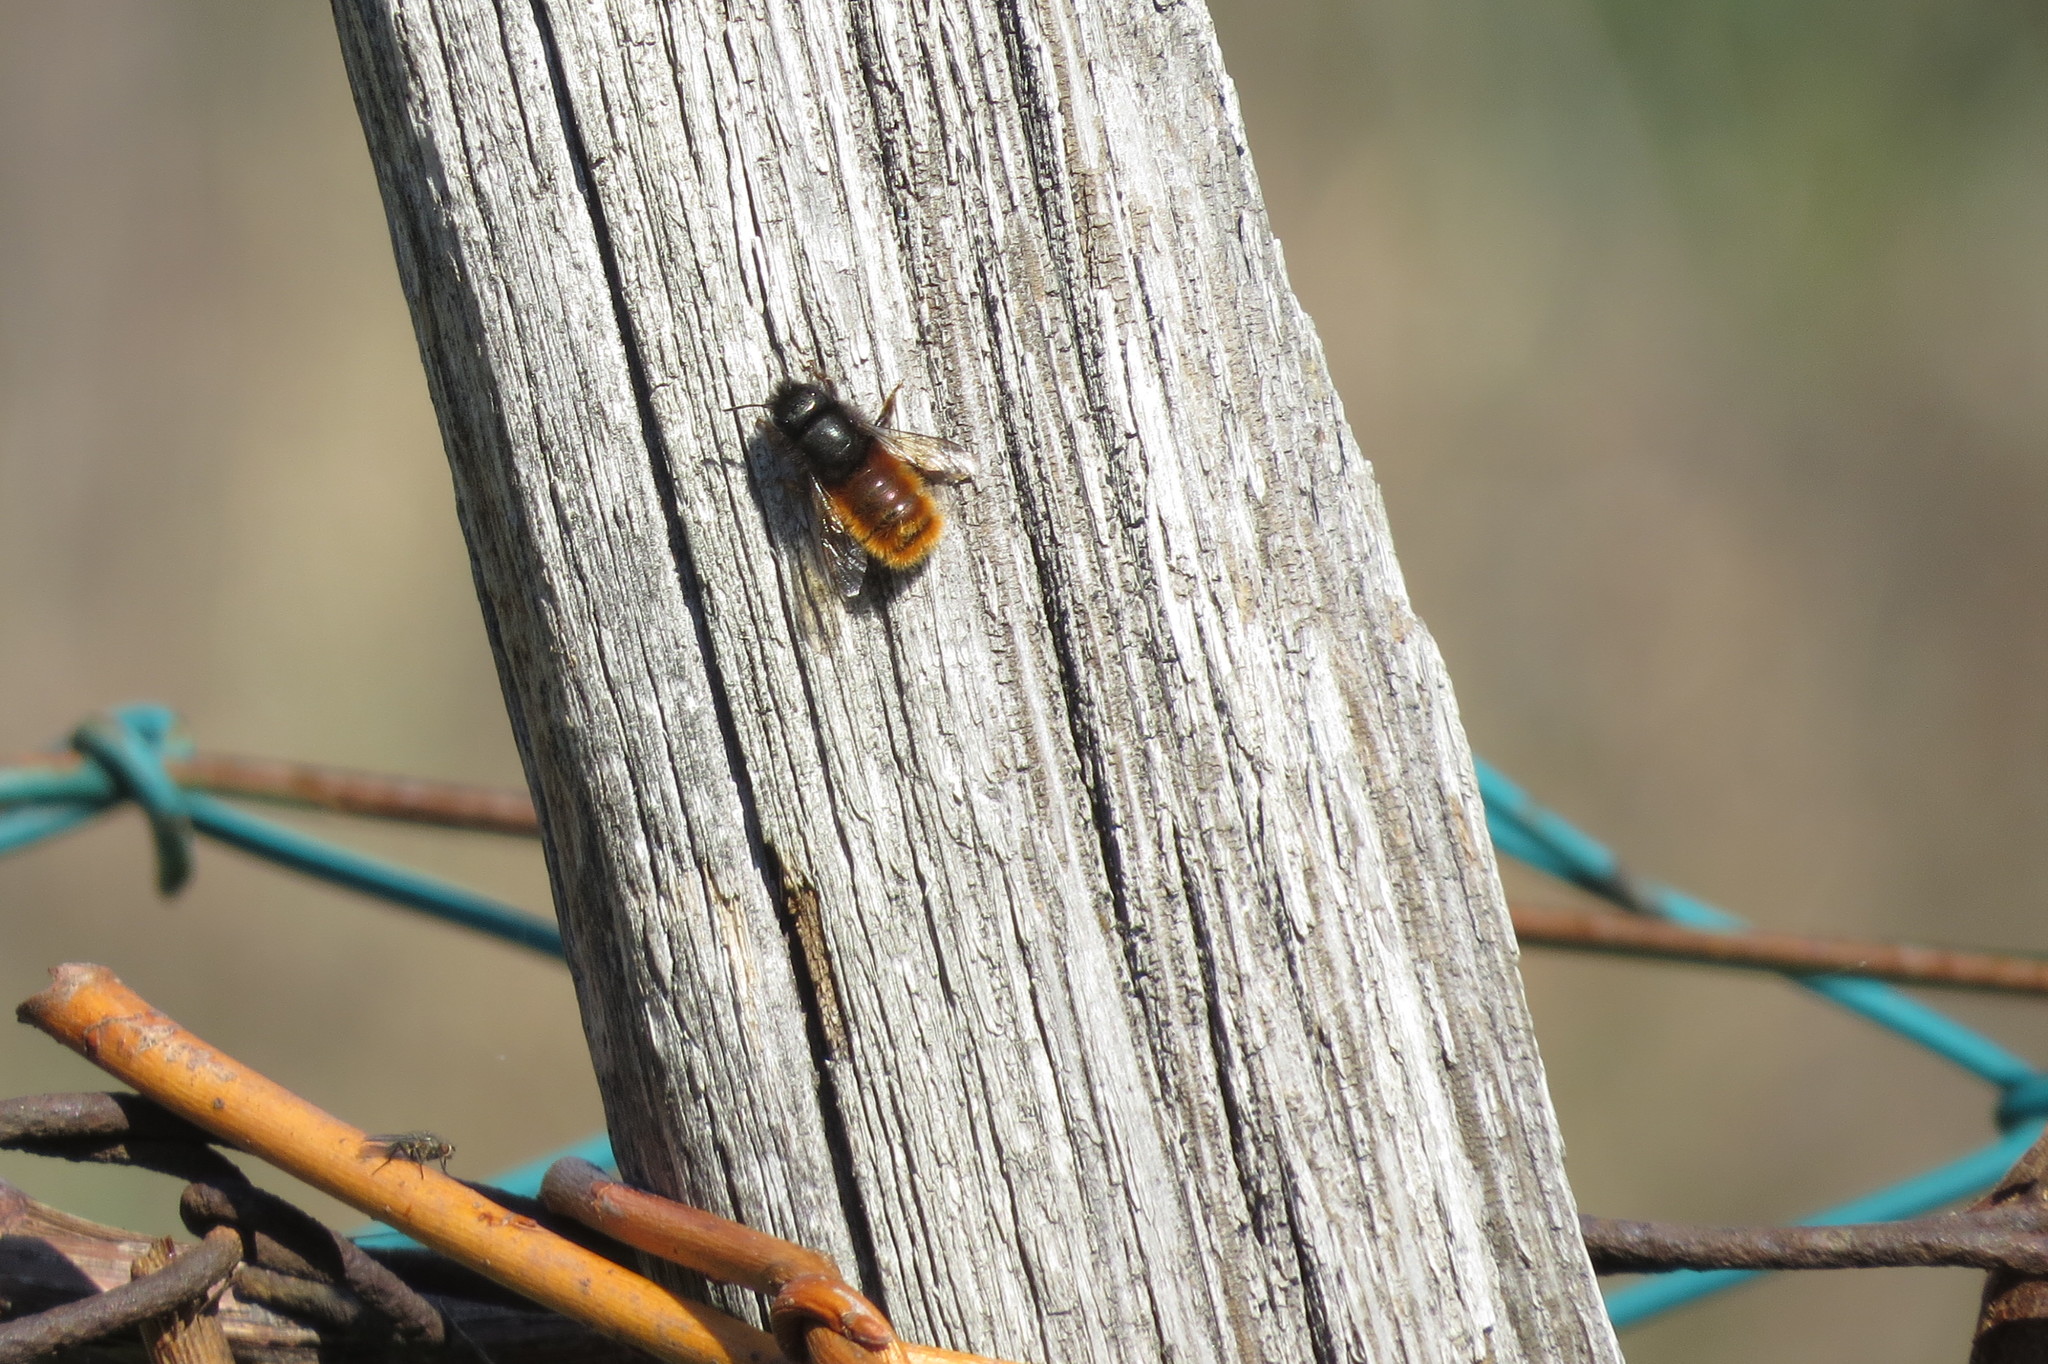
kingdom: Animalia
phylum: Arthropoda
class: Insecta
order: Hymenoptera
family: Megachilidae
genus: Osmia
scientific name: Osmia cornuta
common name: Mason bee
